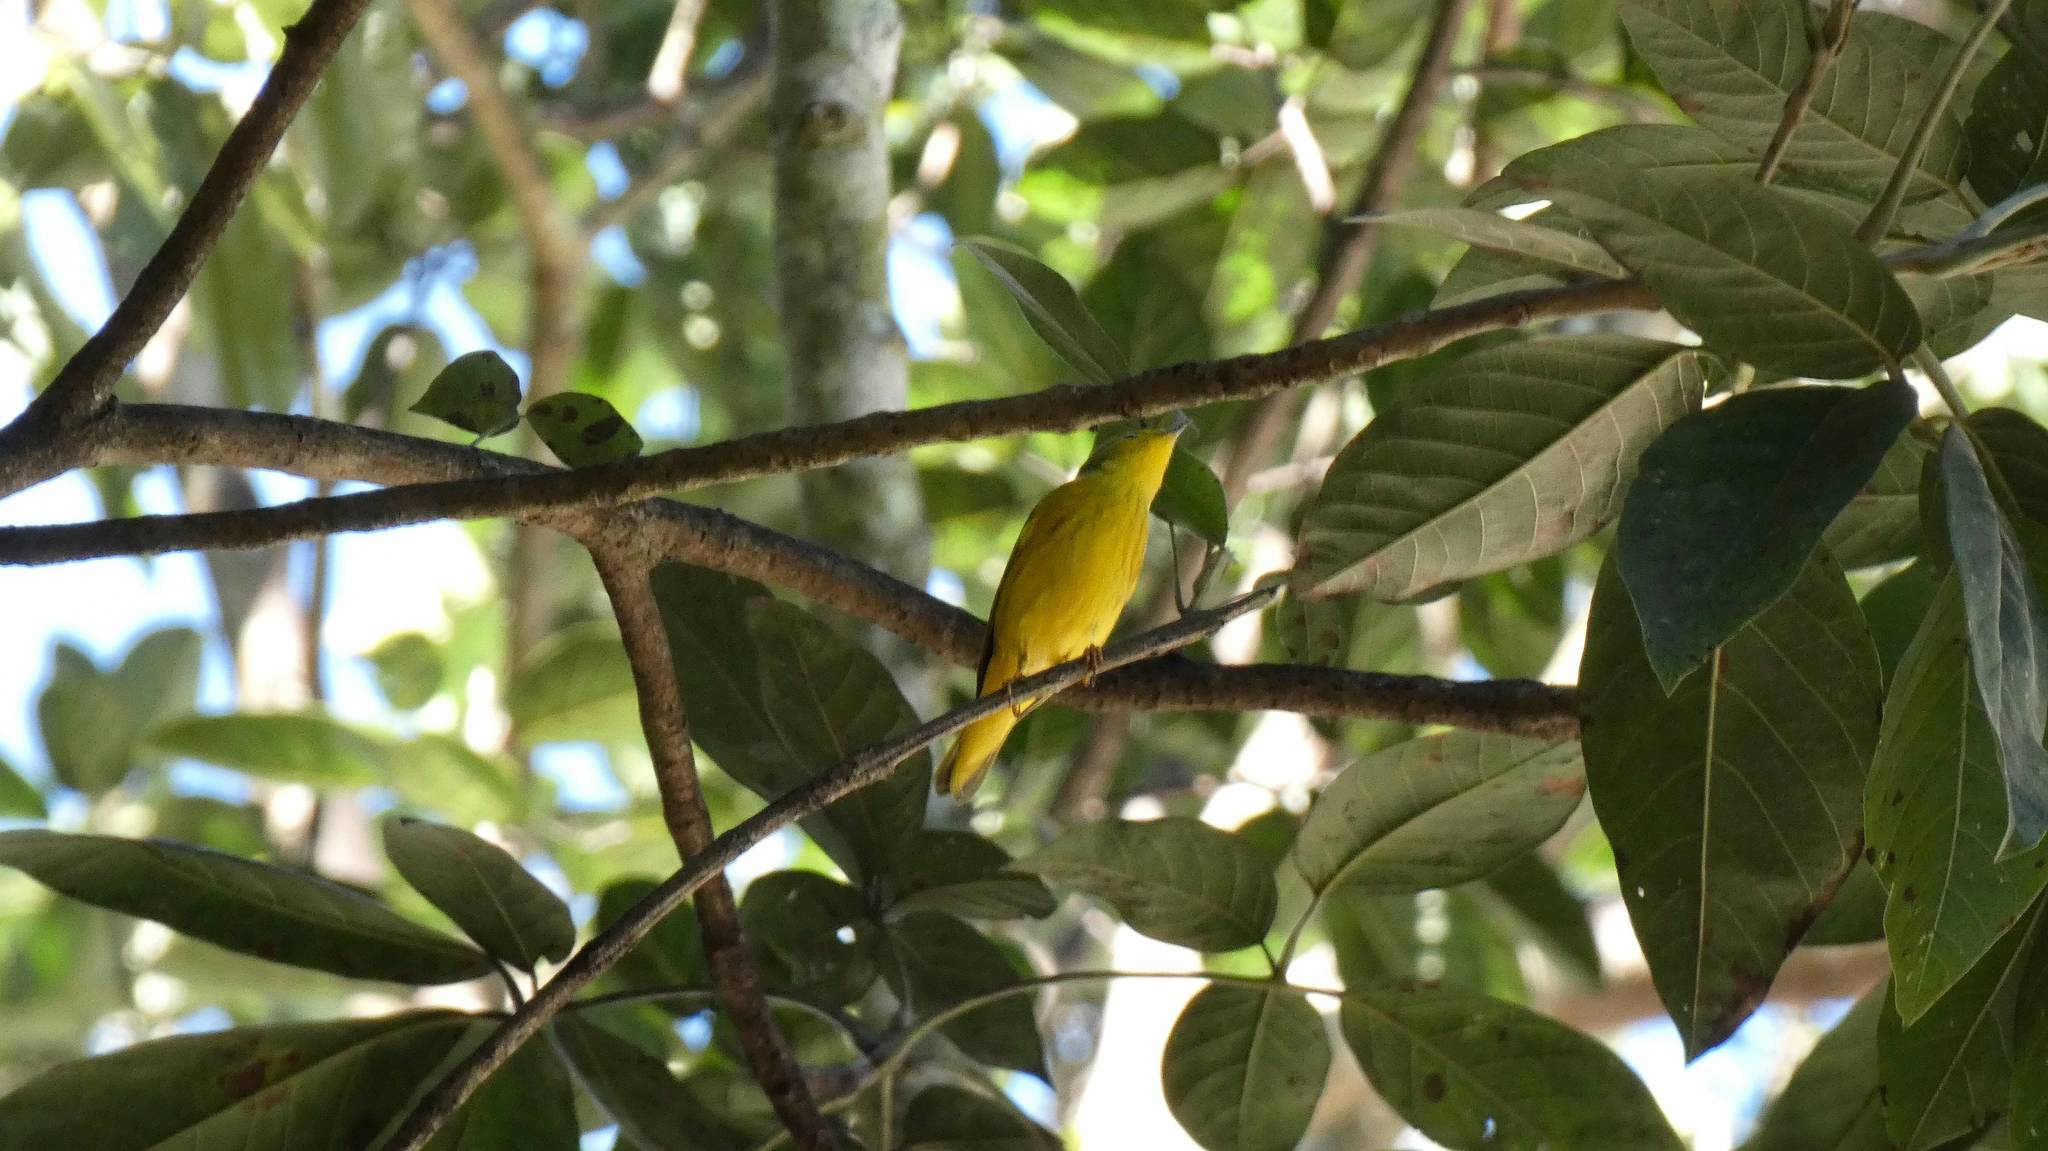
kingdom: Animalia
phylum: Chordata
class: Aves
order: Passeriformes
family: Parulidae
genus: Setophaga
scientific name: Setophaga petechia
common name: Yellow warbler
